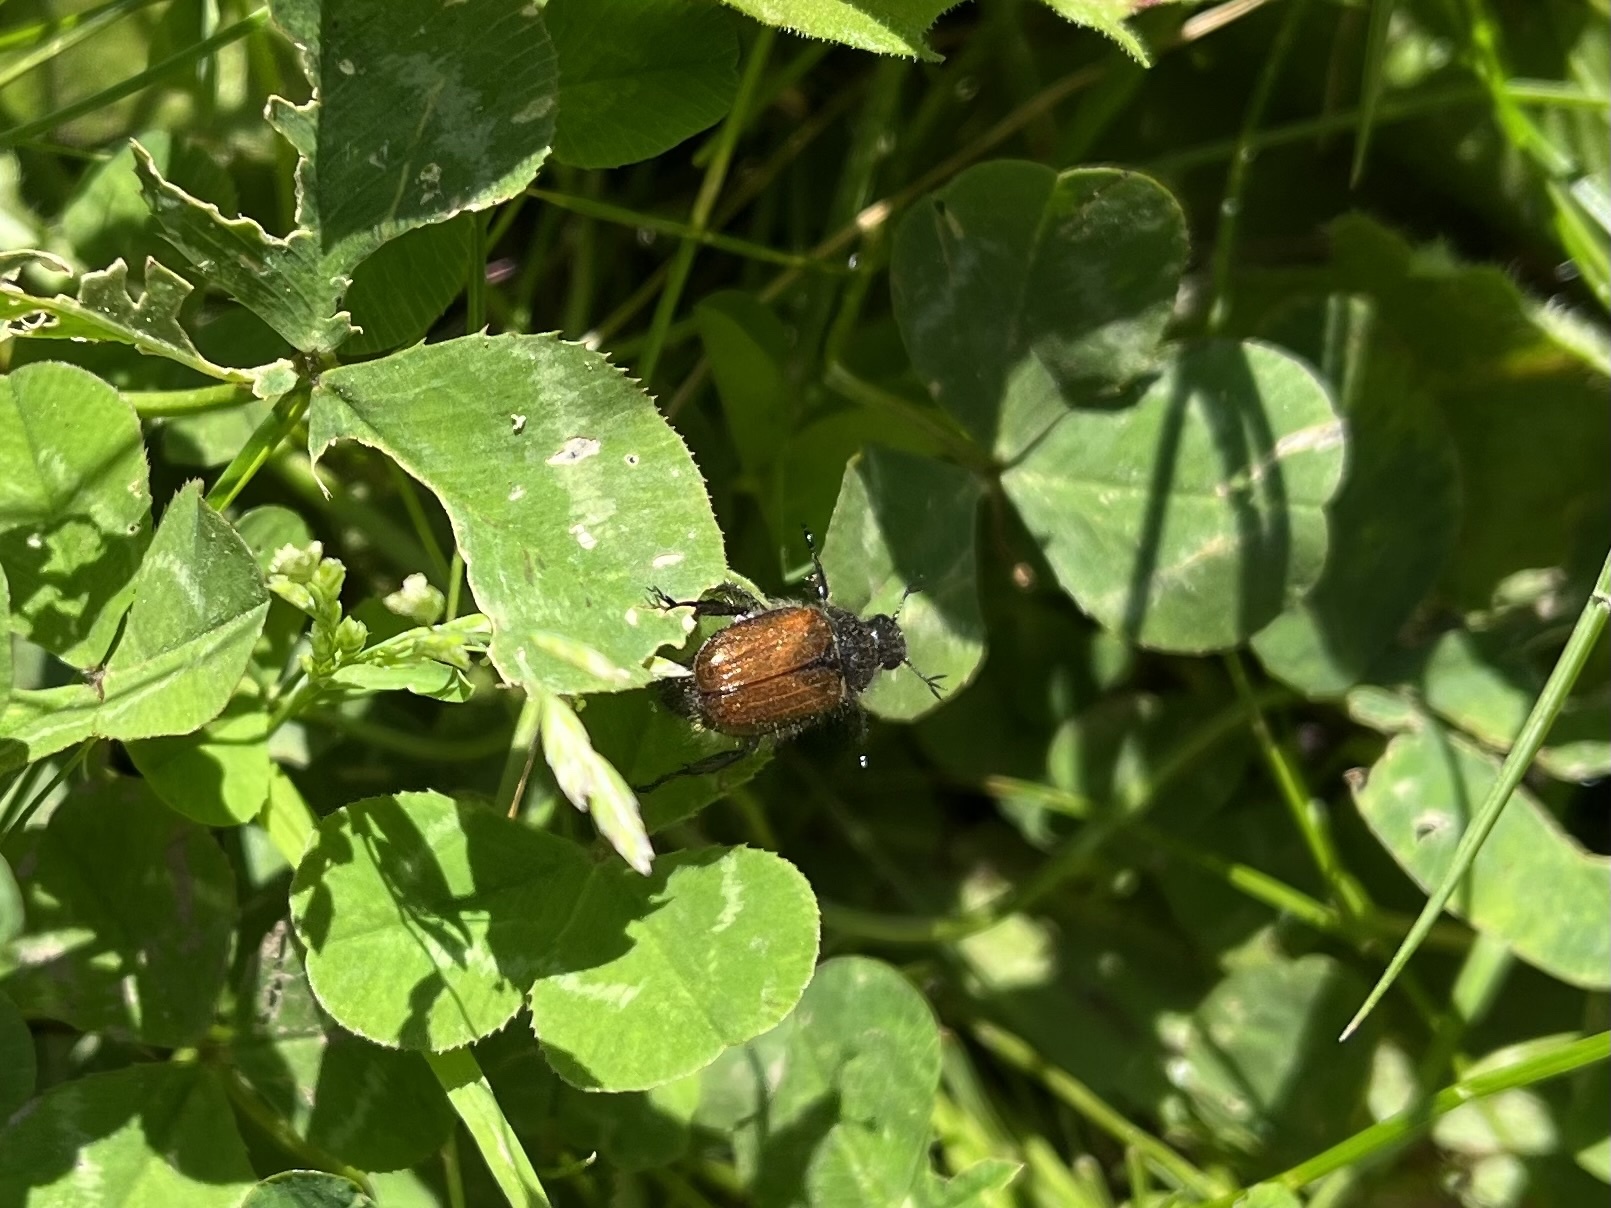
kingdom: Animalia
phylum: Arthropoda
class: Insecta
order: Coleoptera
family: Scarabaeidae
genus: Phyllopertha
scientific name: Phyllopertha horticola
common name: Garden chafer
